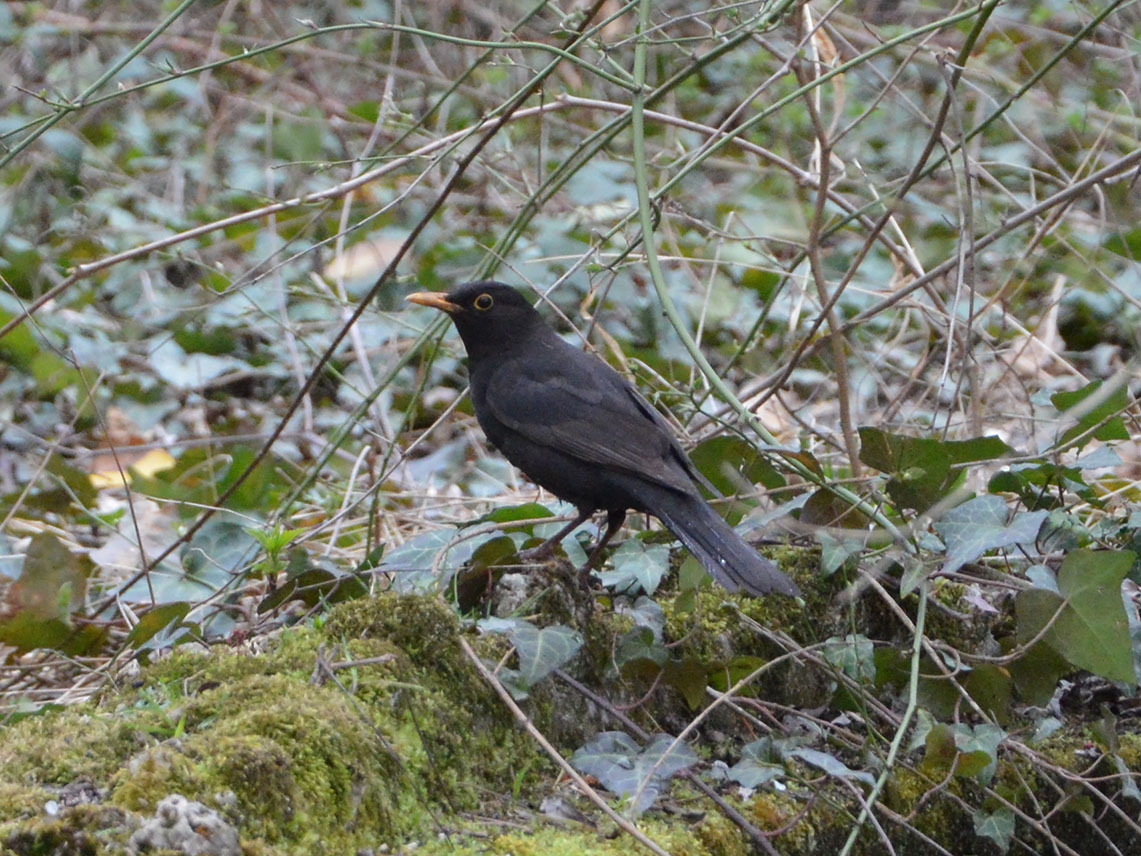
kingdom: Animalia
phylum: Chordata
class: Aves
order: Passeriformes
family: Turdidae
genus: Turdus
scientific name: Turdus merula
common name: Common blackbird
